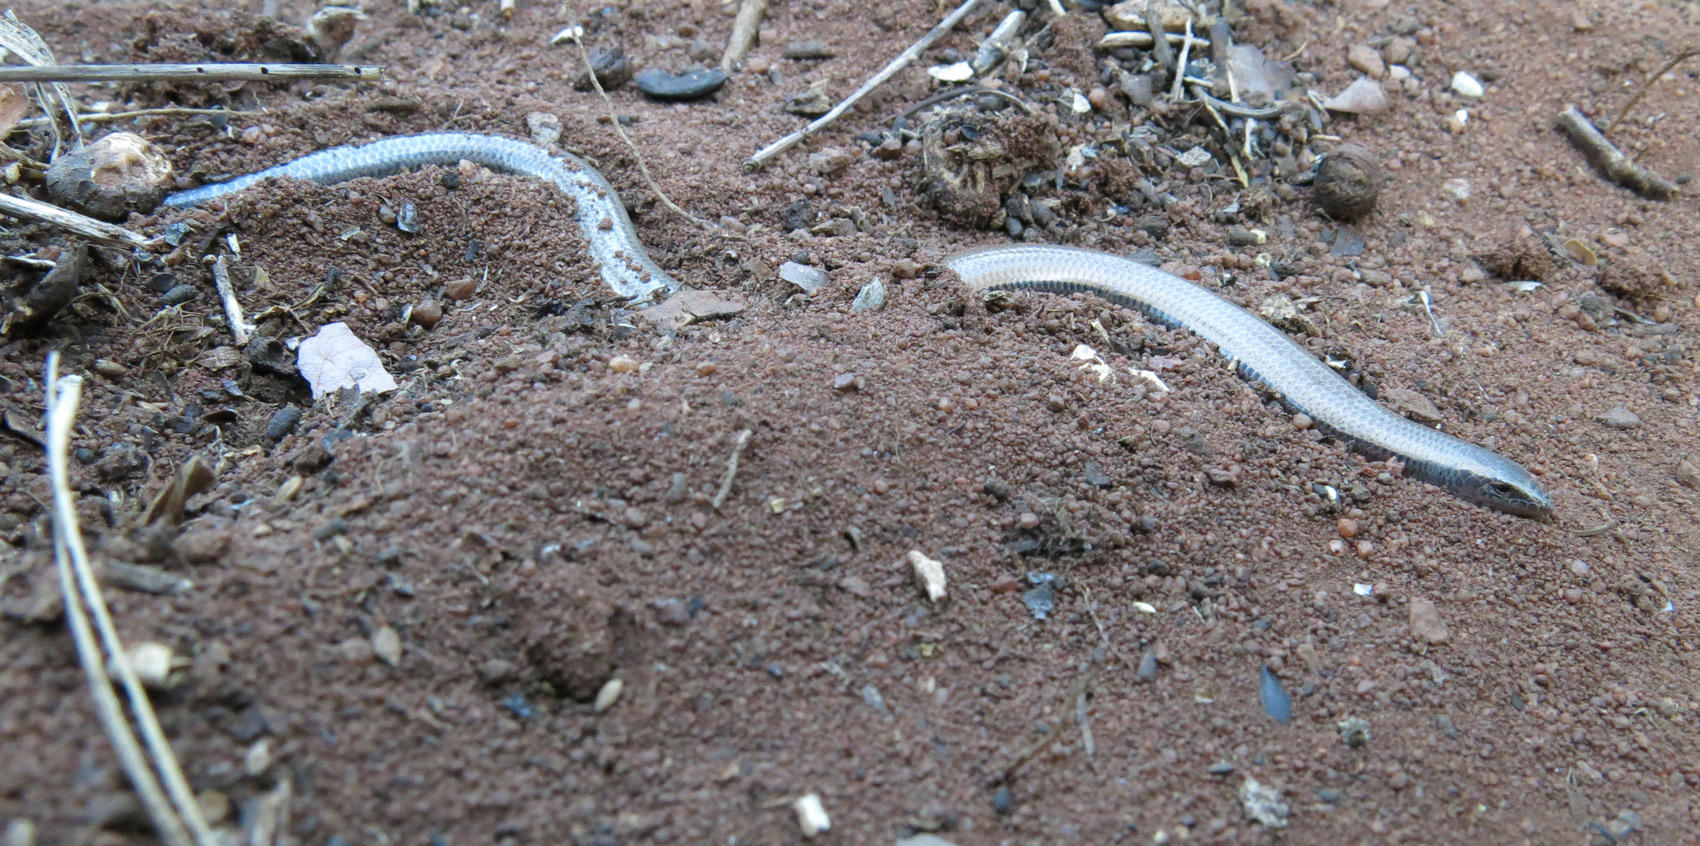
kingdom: Animalia
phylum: Chordata
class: Squamata
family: Scincidae
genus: Scelotes
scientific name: Scelotes limpopoensis
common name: Limpopo dwarf burrowing skink
